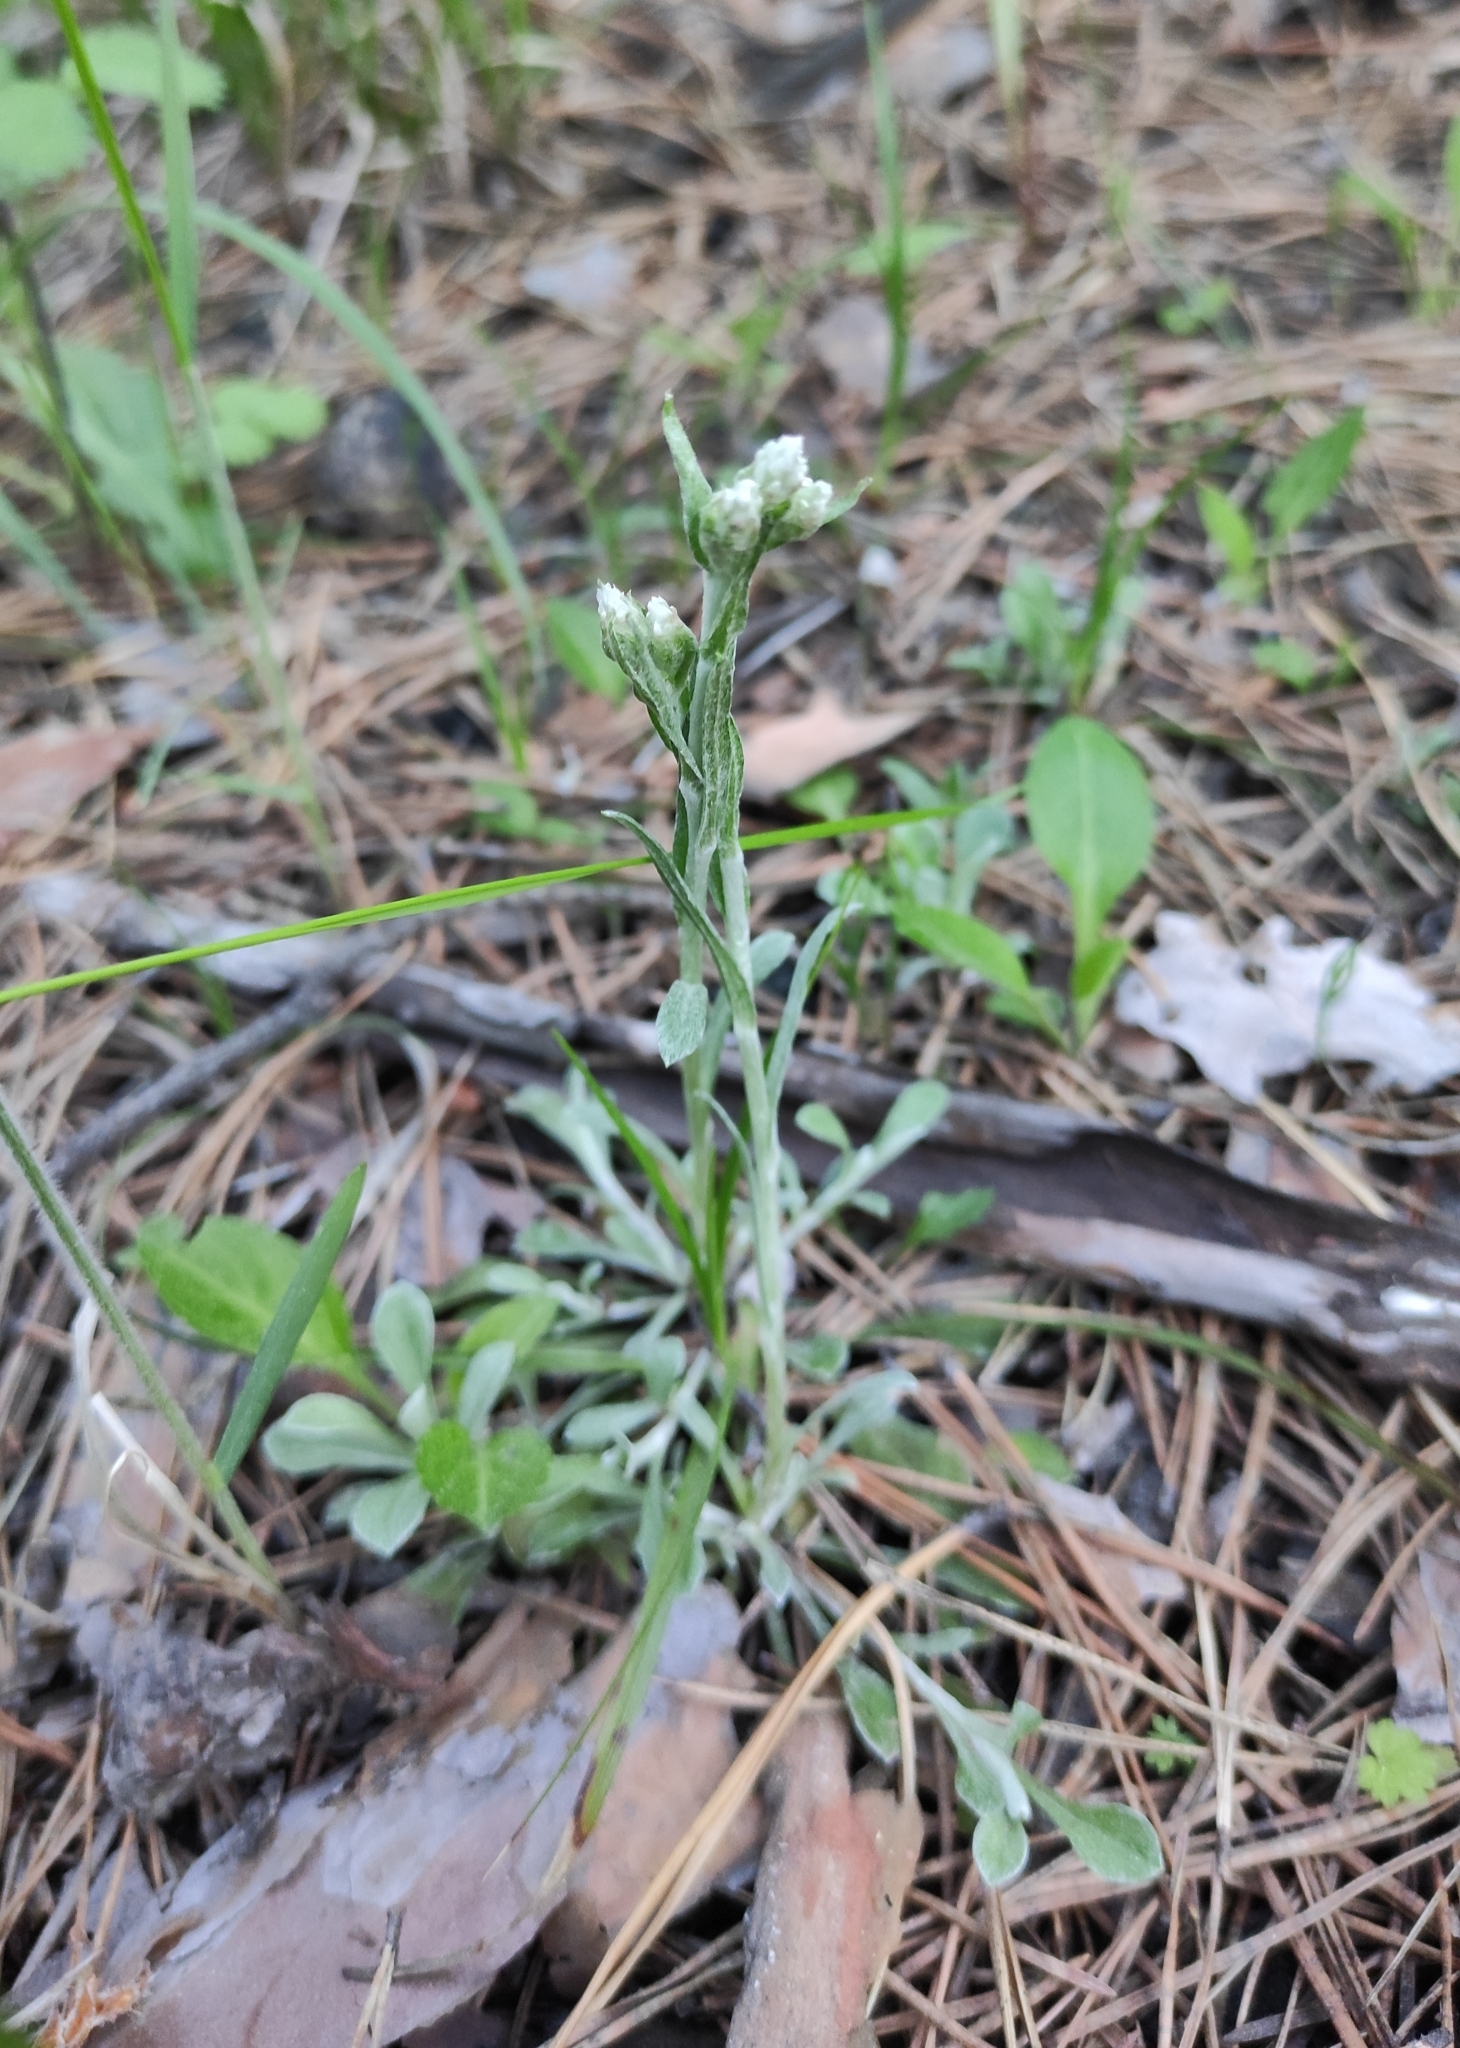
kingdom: Plantae
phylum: Tracheophyta
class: Magnoliopsida
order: Asterales
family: Asteraceae
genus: Antennaria
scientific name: Antennaria dioica
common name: Mountain everlasting
